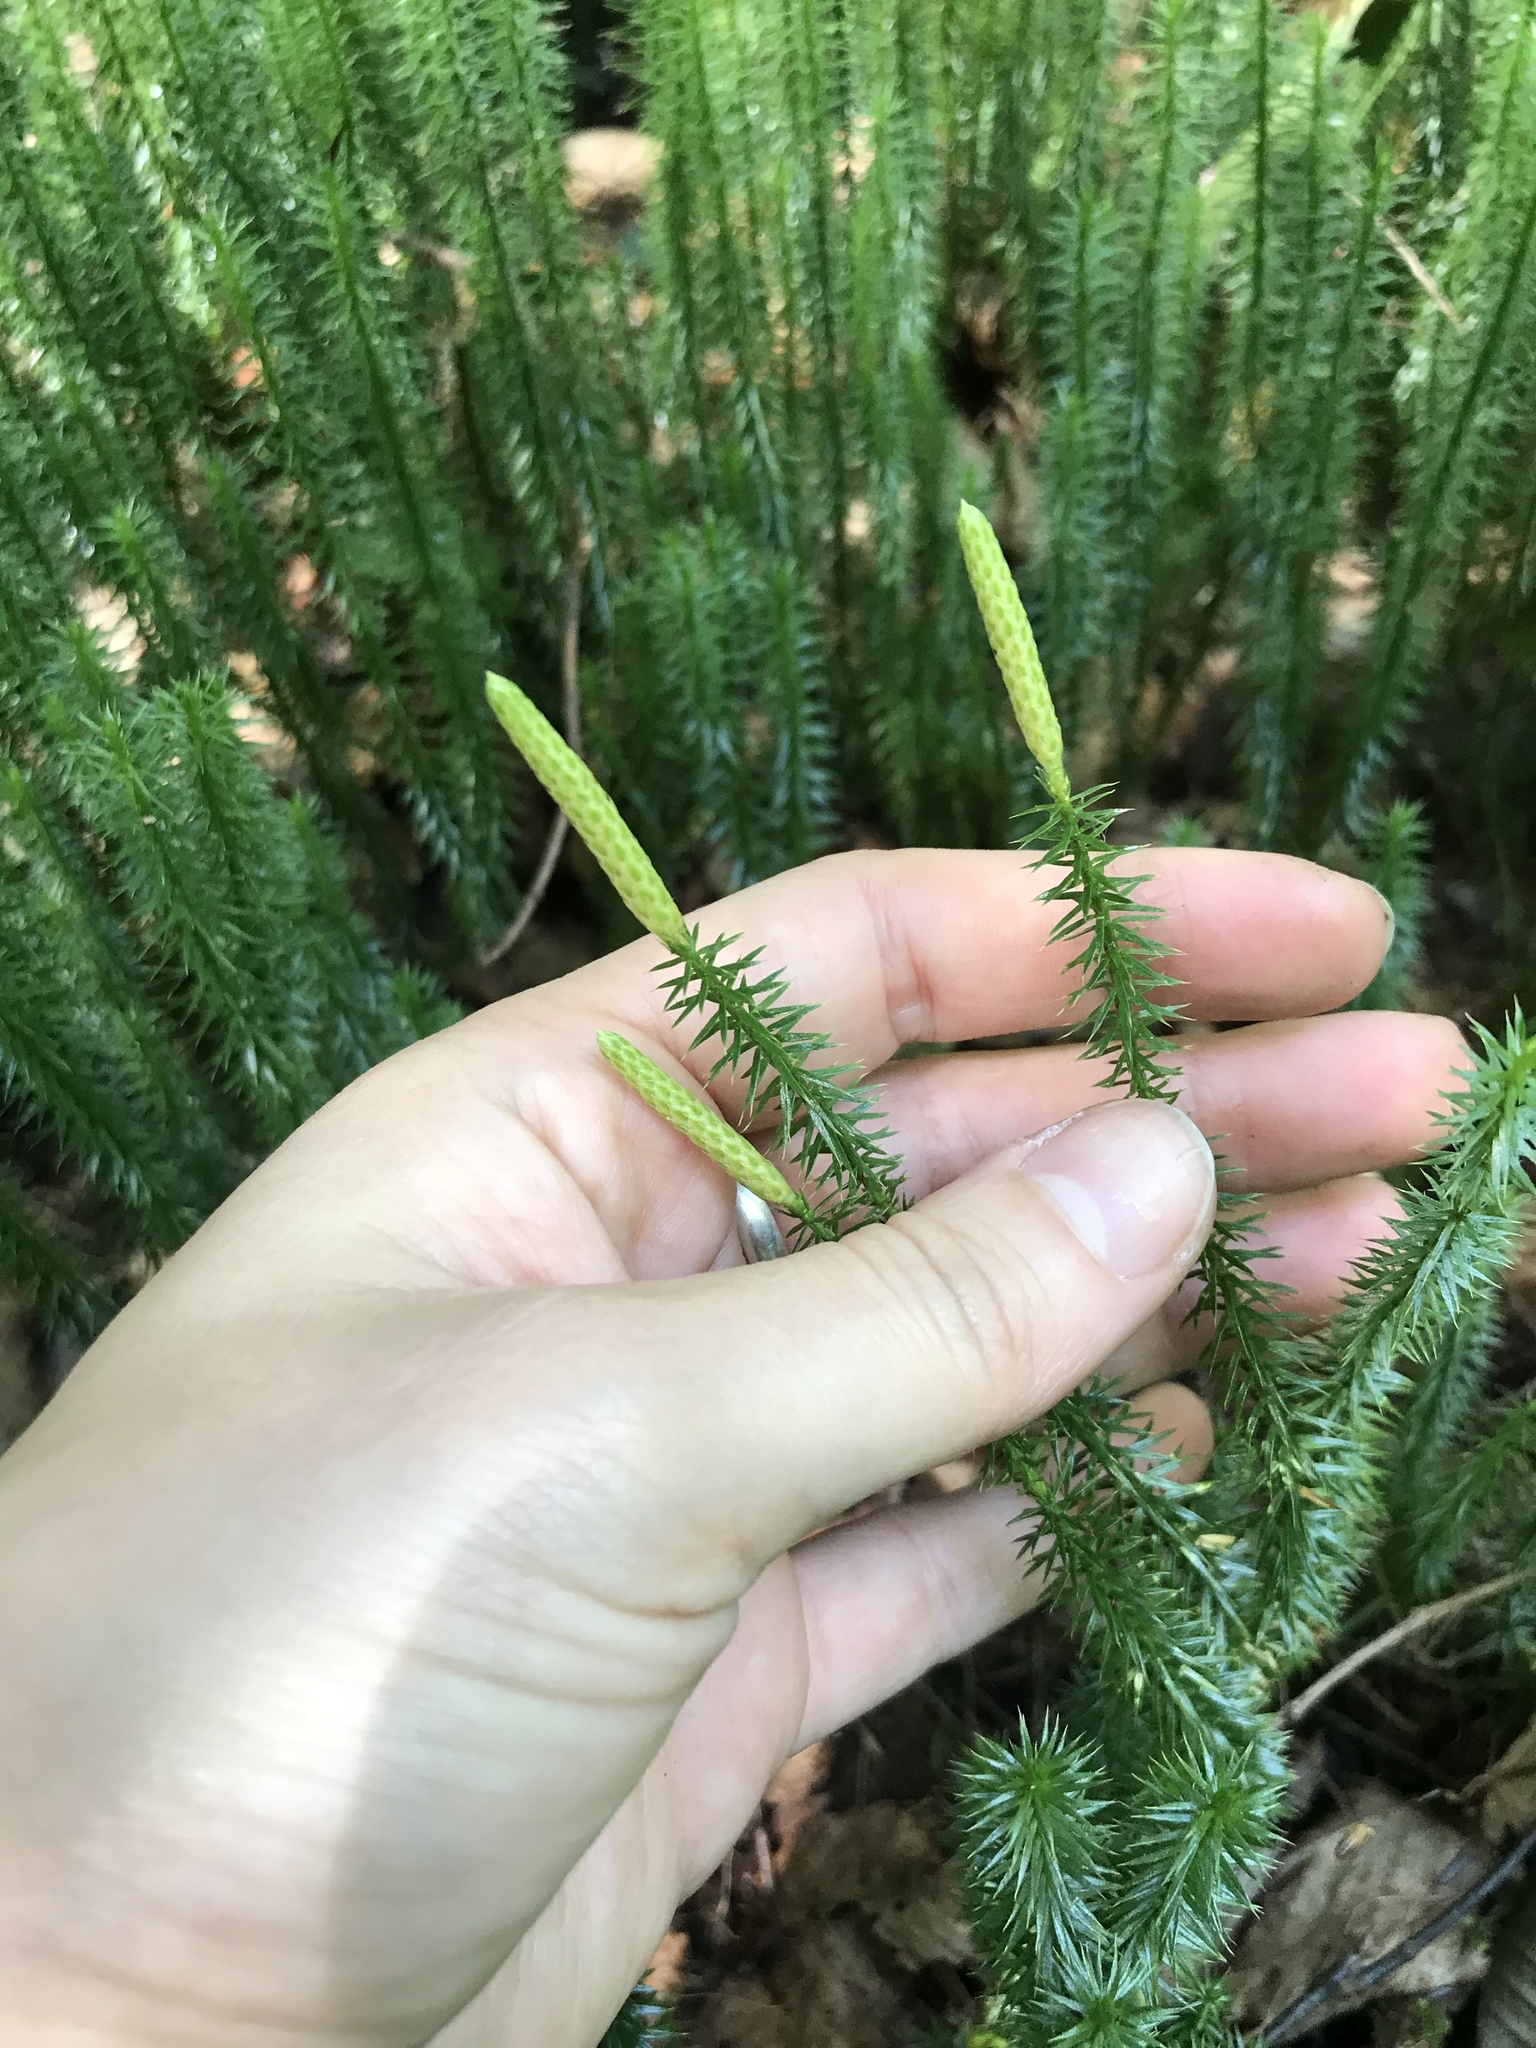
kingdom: Plantae
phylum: Tracheophyta
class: Lycopodiopsida
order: Lycopodiales
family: Lycopodiaceae
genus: Spinulum
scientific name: Spinulum annotinum
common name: Interrupted club-moss
